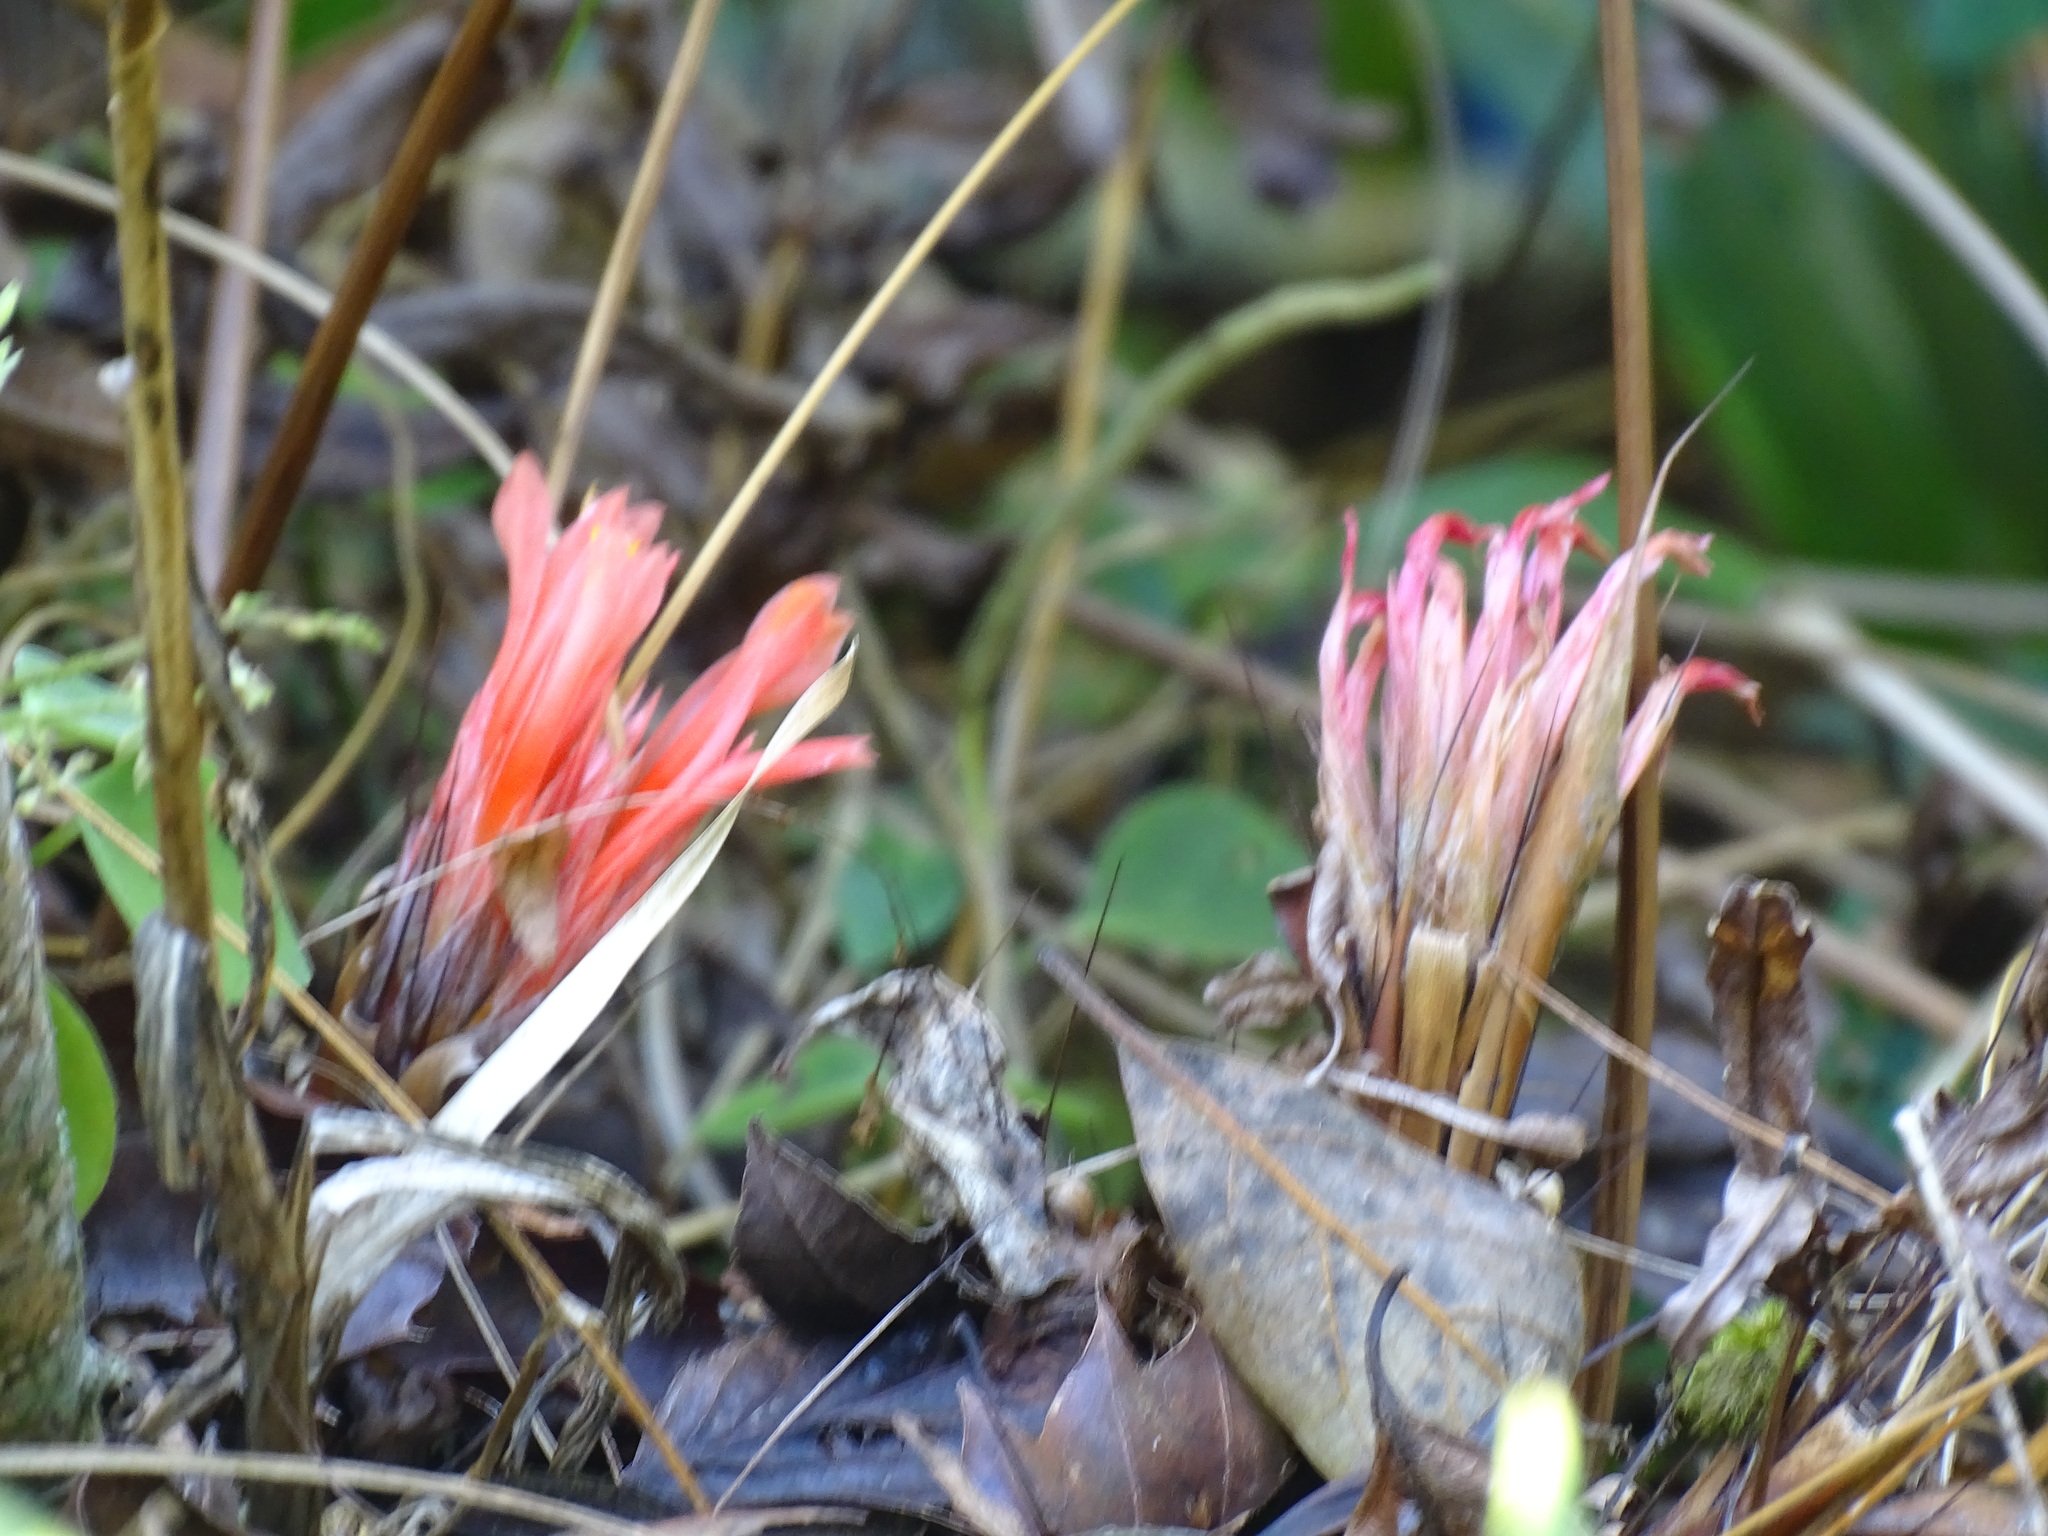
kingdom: Plantae
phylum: Tracheophyta
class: Liliopsida
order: Poales
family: Bromeliaceae
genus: Pitcairnia
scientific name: Pitcairnia heterophylla
